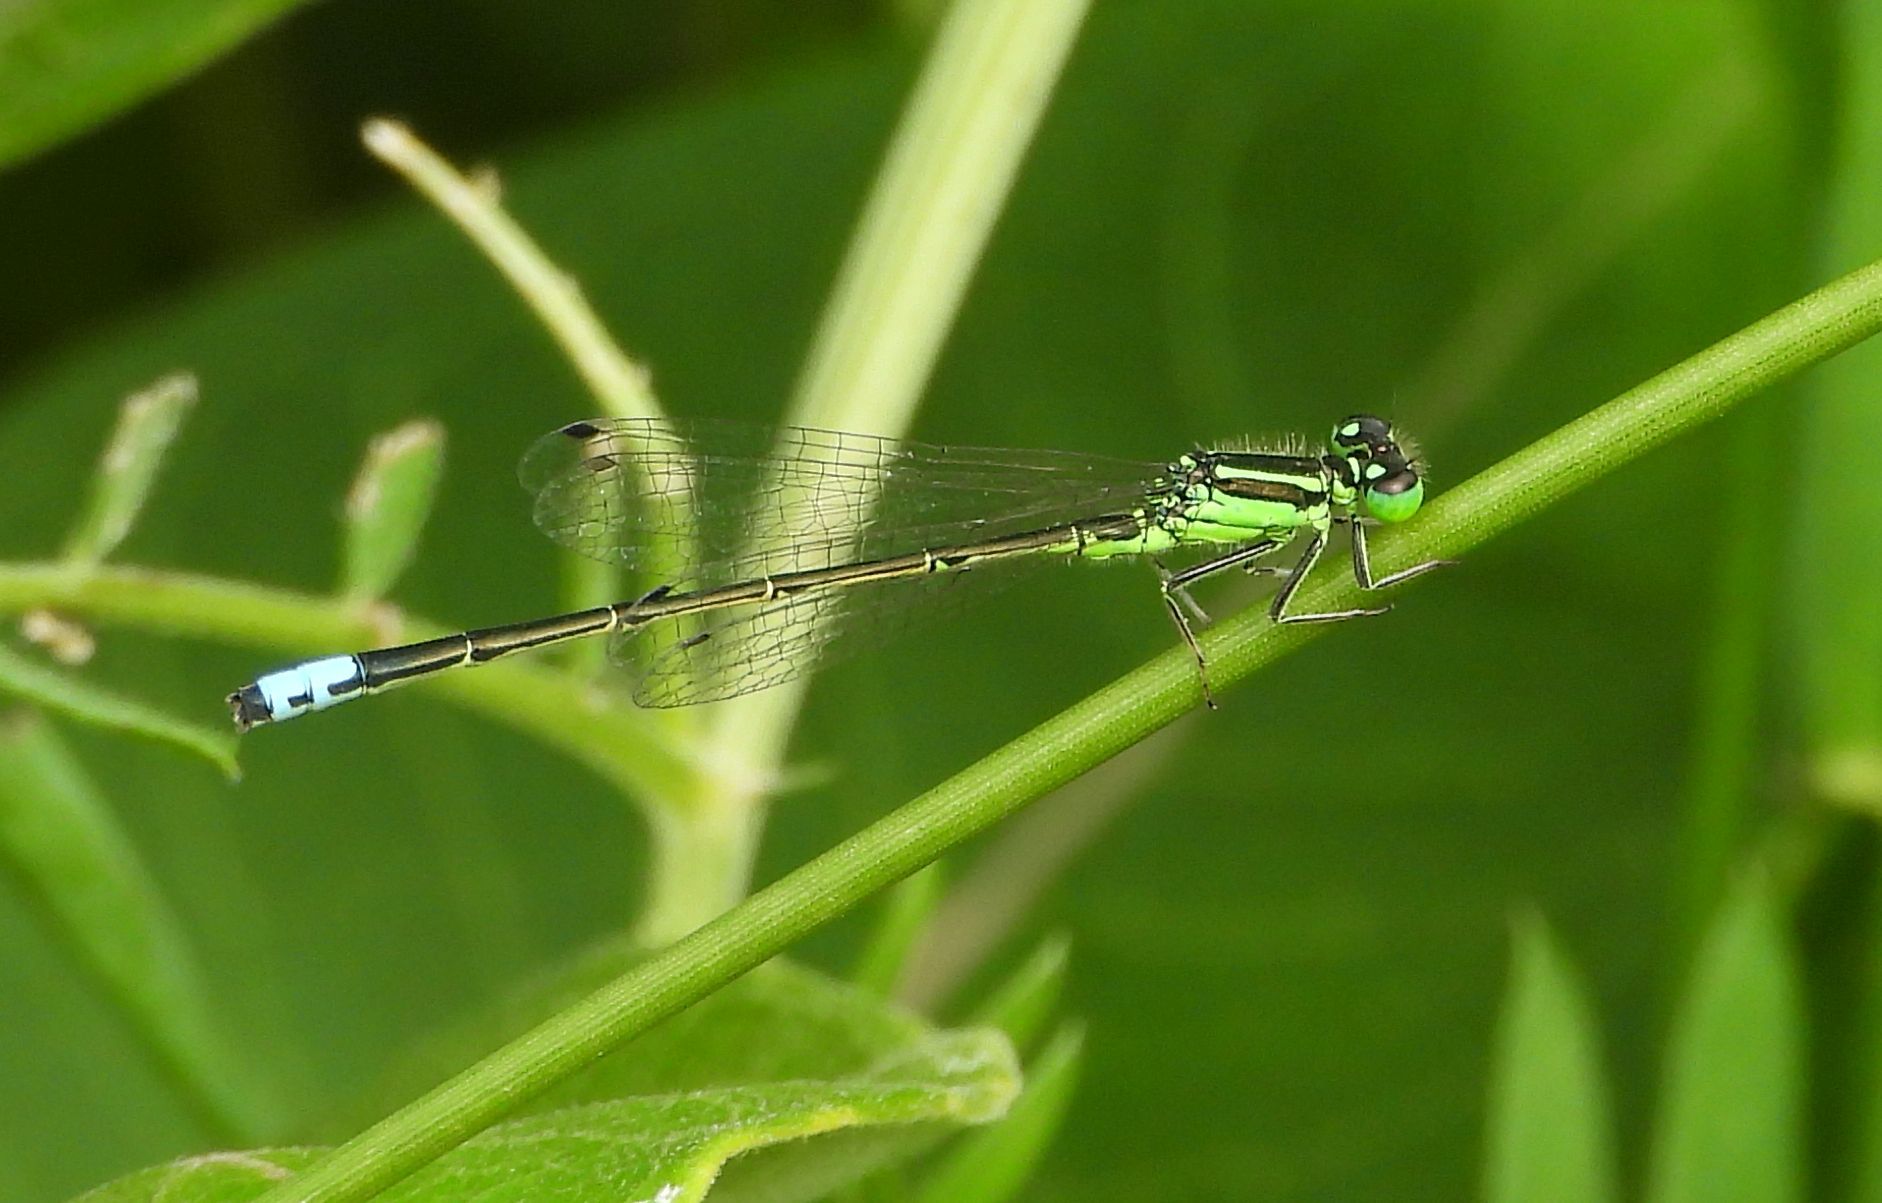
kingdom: Animalia
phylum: Arthropoda
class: Insecta
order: Odonata
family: Coenagrionidae
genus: Ischnura
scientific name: Ischnura verticalis
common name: Eastern forktail
